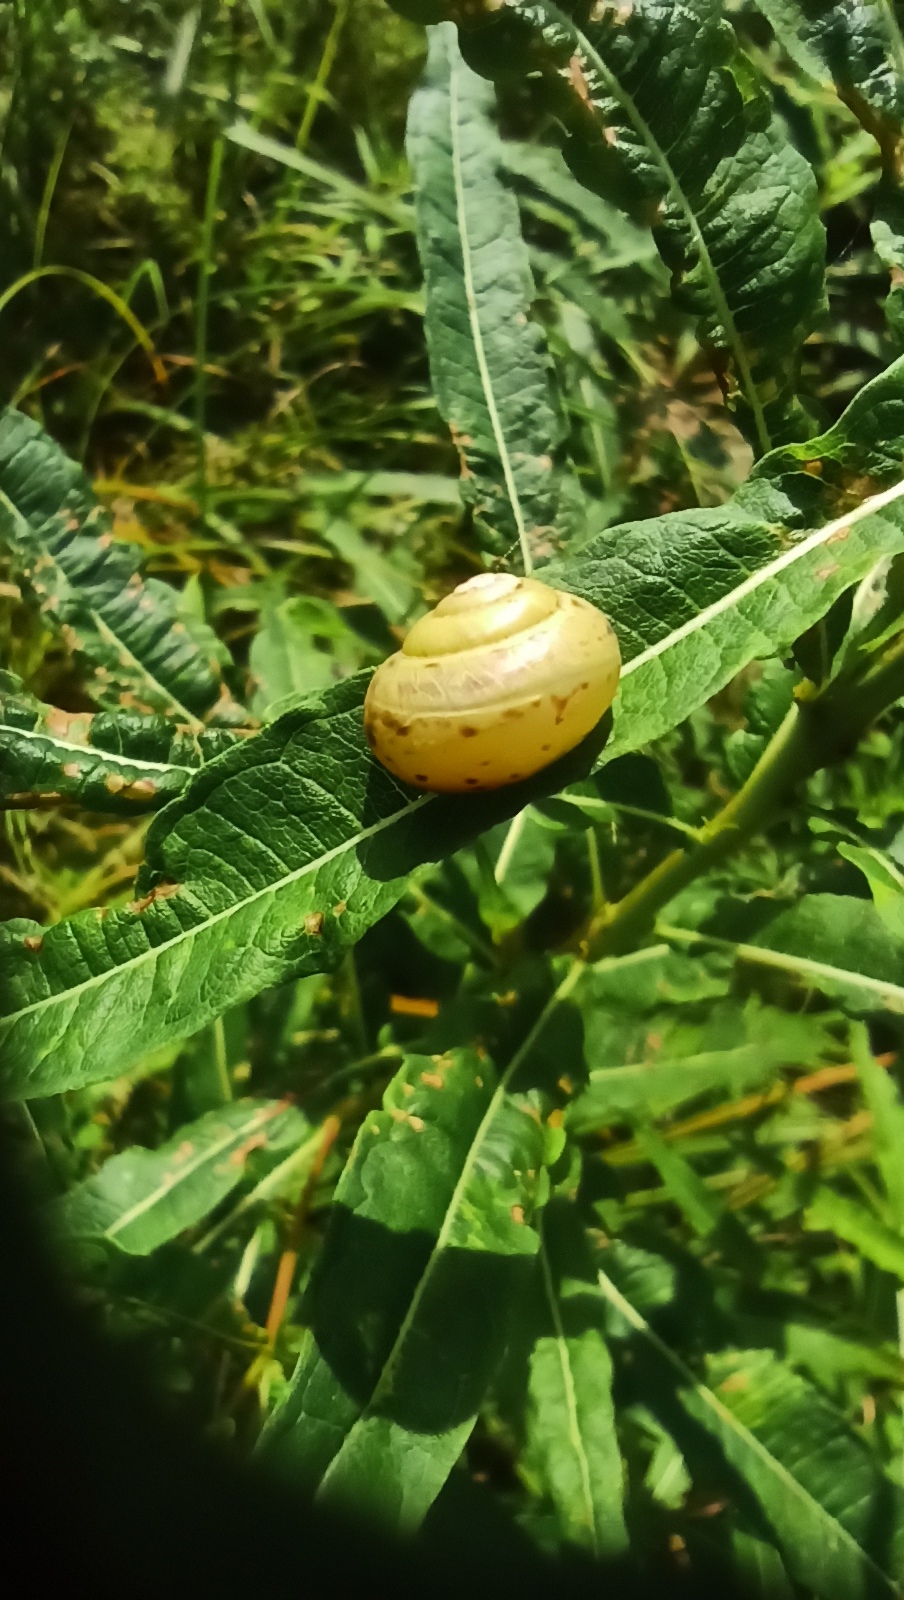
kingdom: Animalia
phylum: Mollusca
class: Gastropoda
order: Stylommatophora
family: Camaenidae
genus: Fruticicola
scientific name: Fruticicola fruticum
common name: Bush snail
